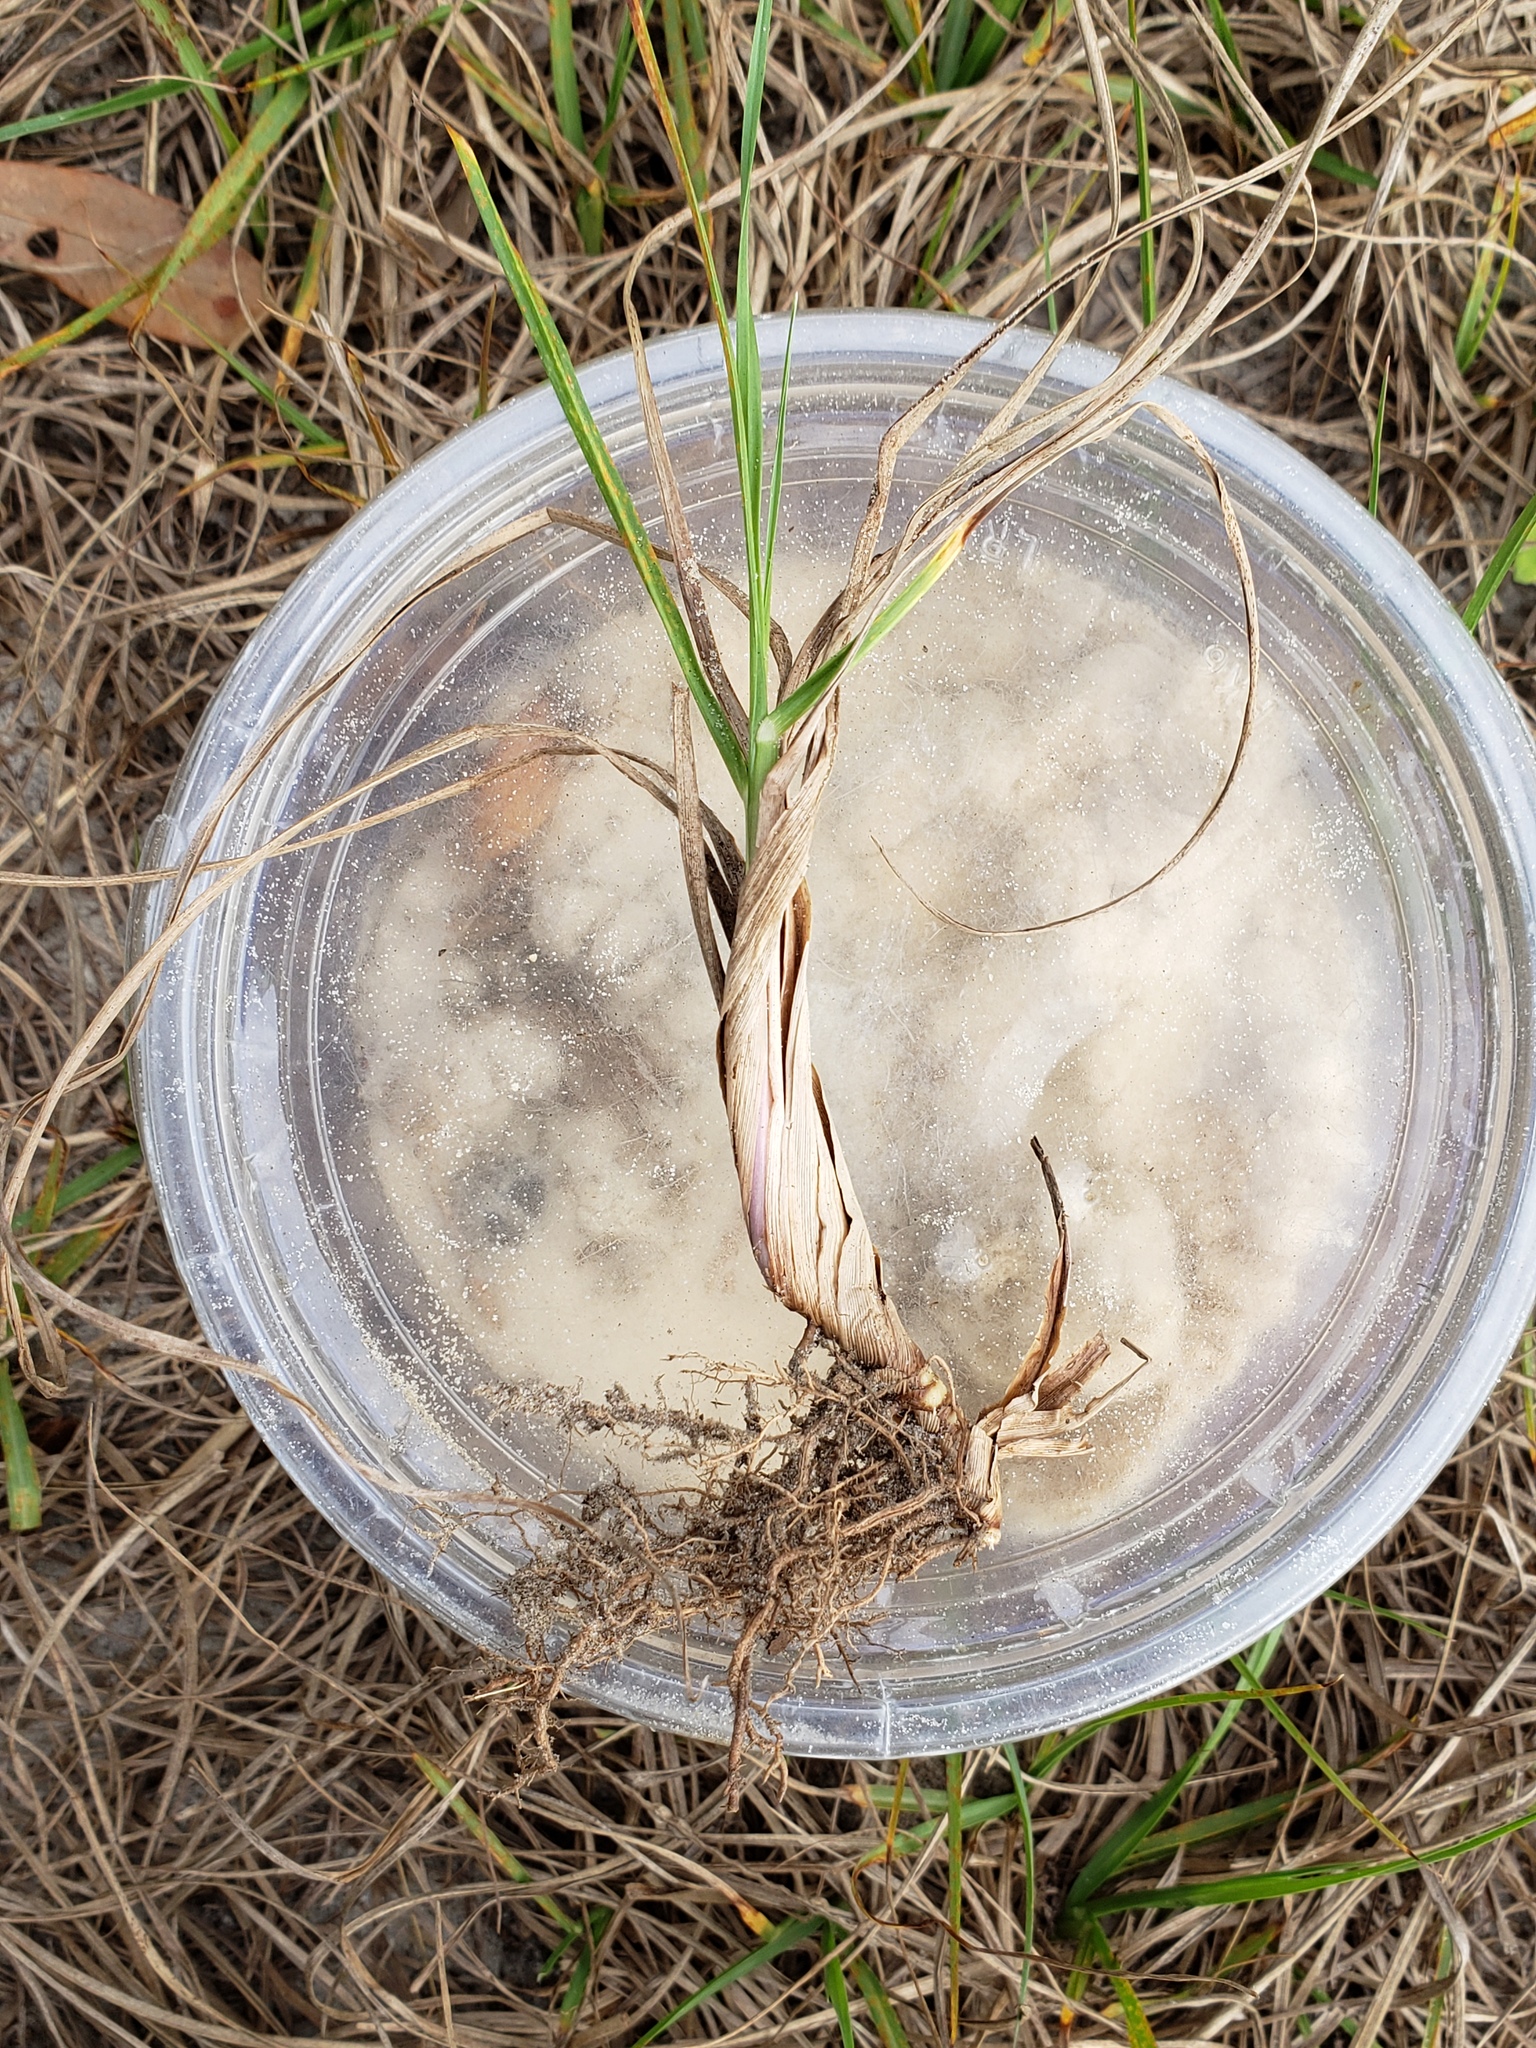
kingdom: Plantae
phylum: Tracheophyta
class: Liliopsida
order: Poales
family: Poaceae
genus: Paspalum
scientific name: Paspalum notatum
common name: Bahiagrass
